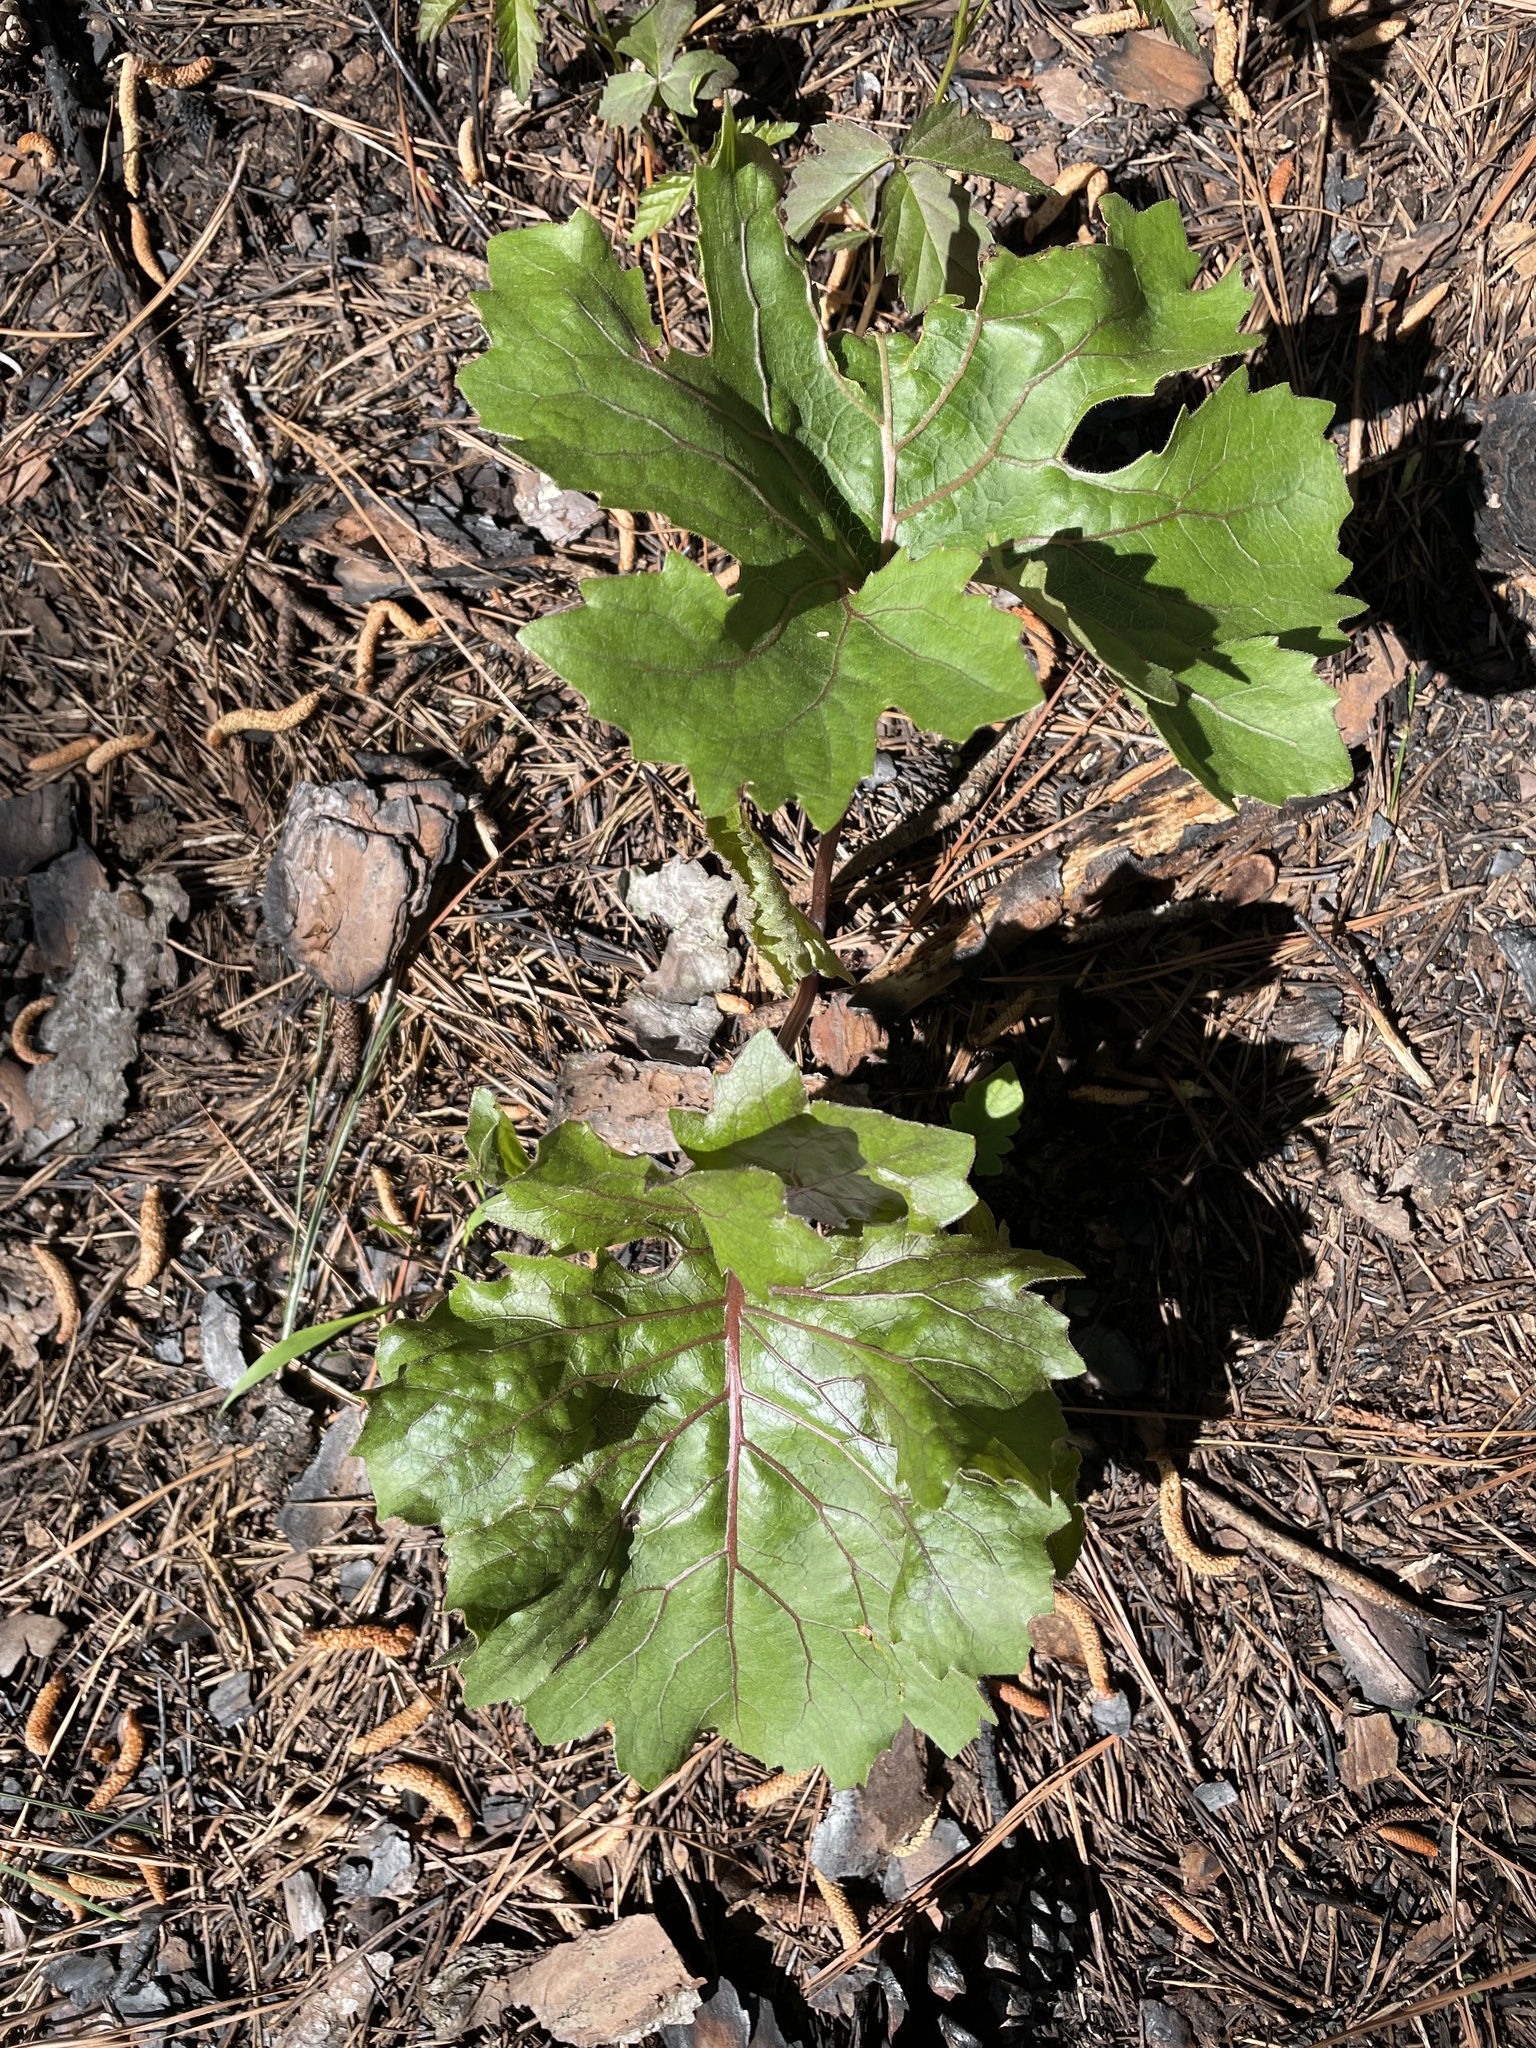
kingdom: Plantae
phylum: Tracheophyta
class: Magnoliopsida
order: Asterales
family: Asteraceae
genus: Silphium
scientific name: Silphium compositum
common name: Lesser basal-leaf rosinweed
